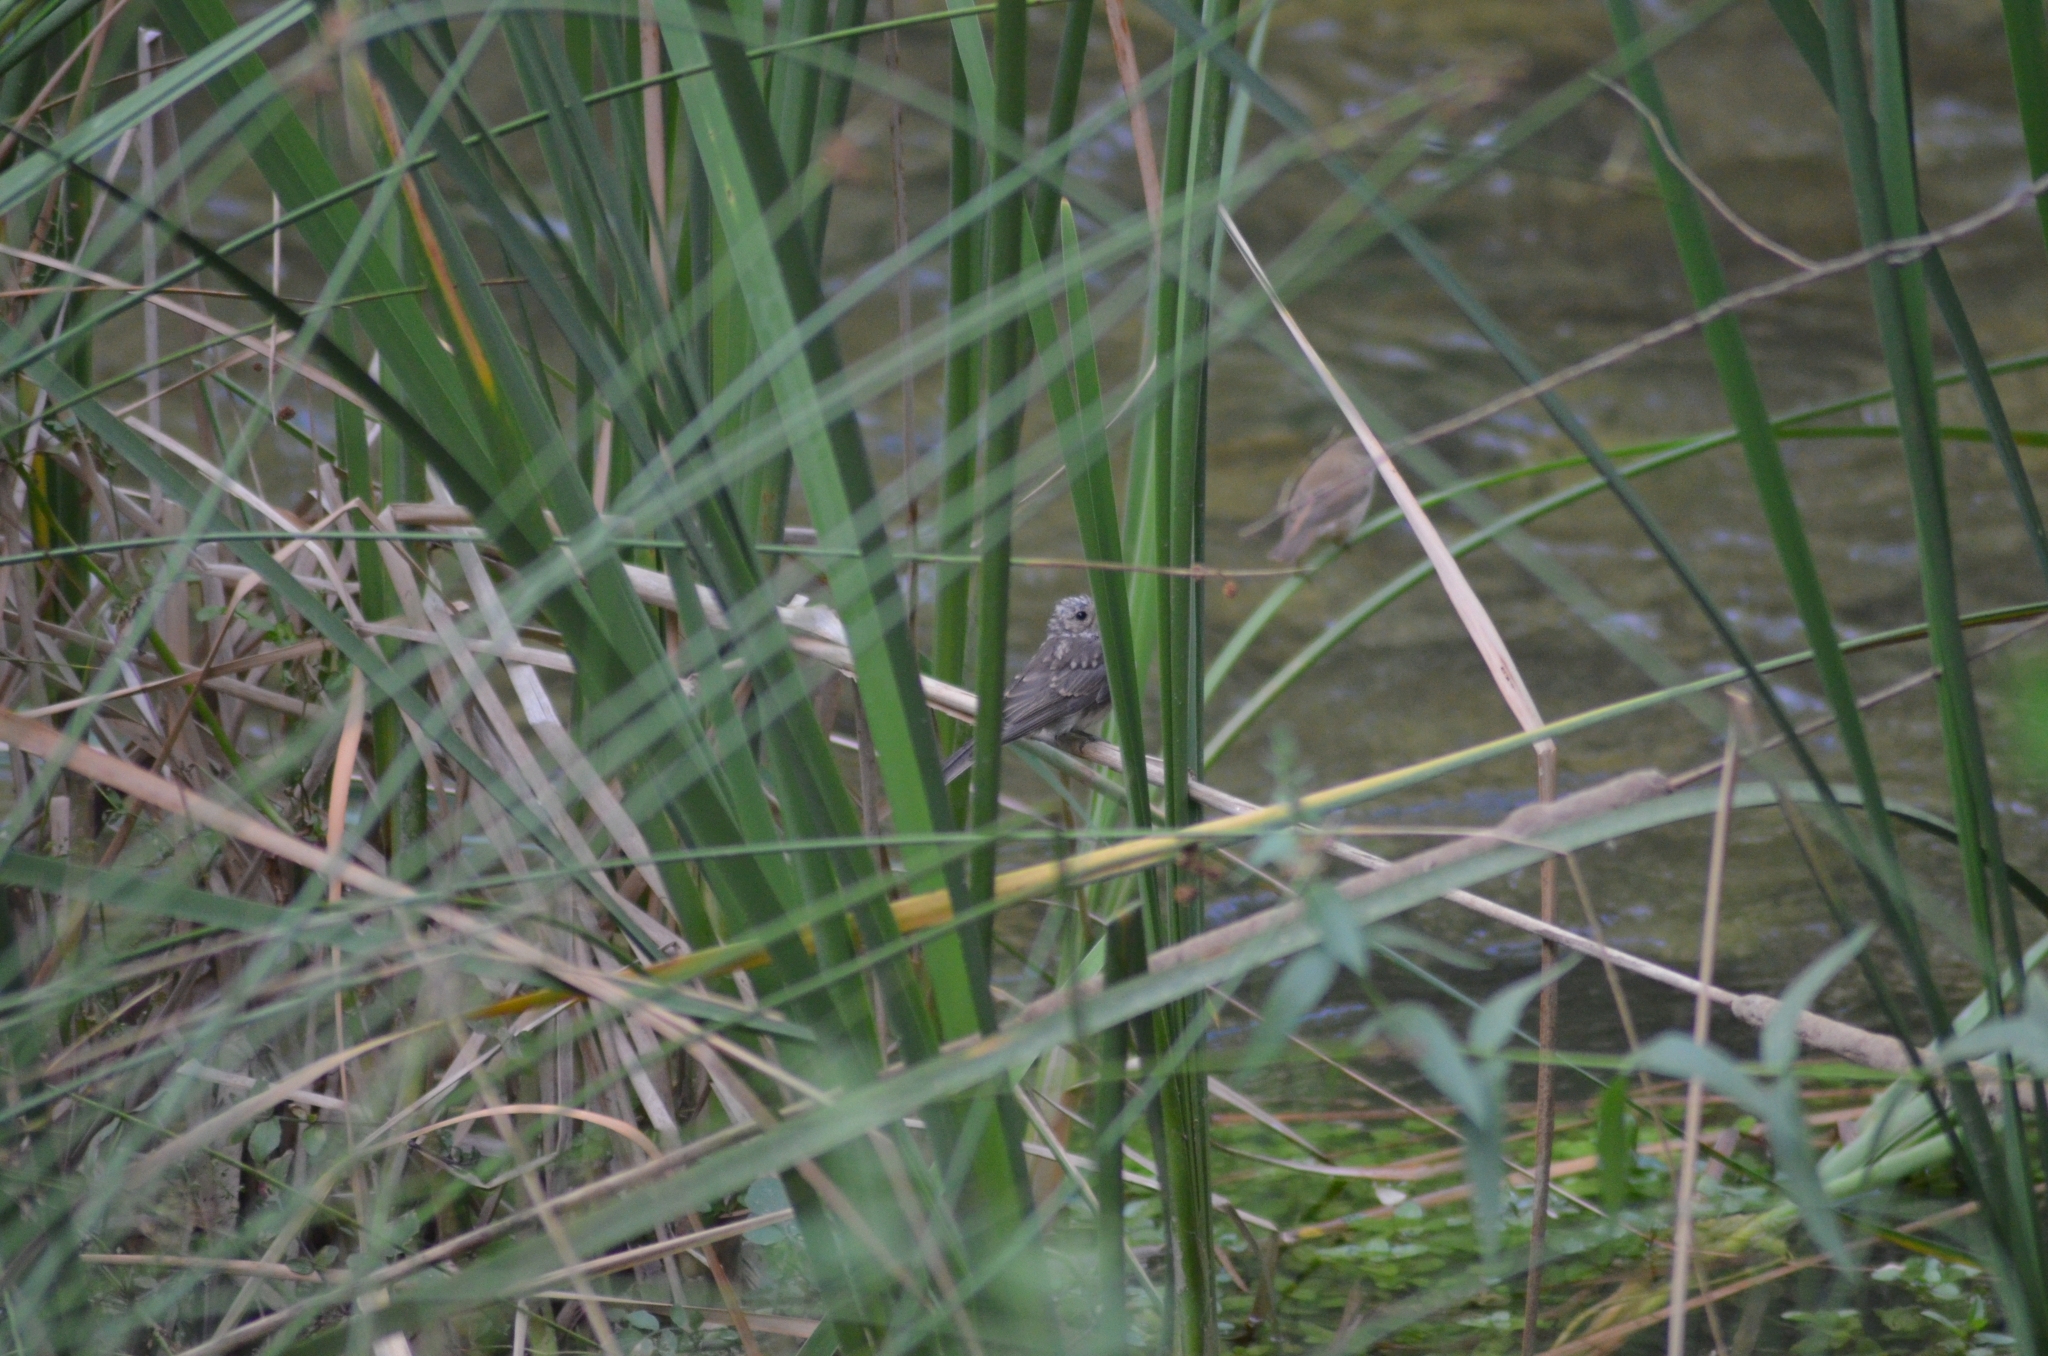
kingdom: Animalia
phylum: Chordata
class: Aves
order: Passeriformes
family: Muscicapidae
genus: Muscicapa
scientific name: Muscicapa striata
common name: Spotted flycatcher
